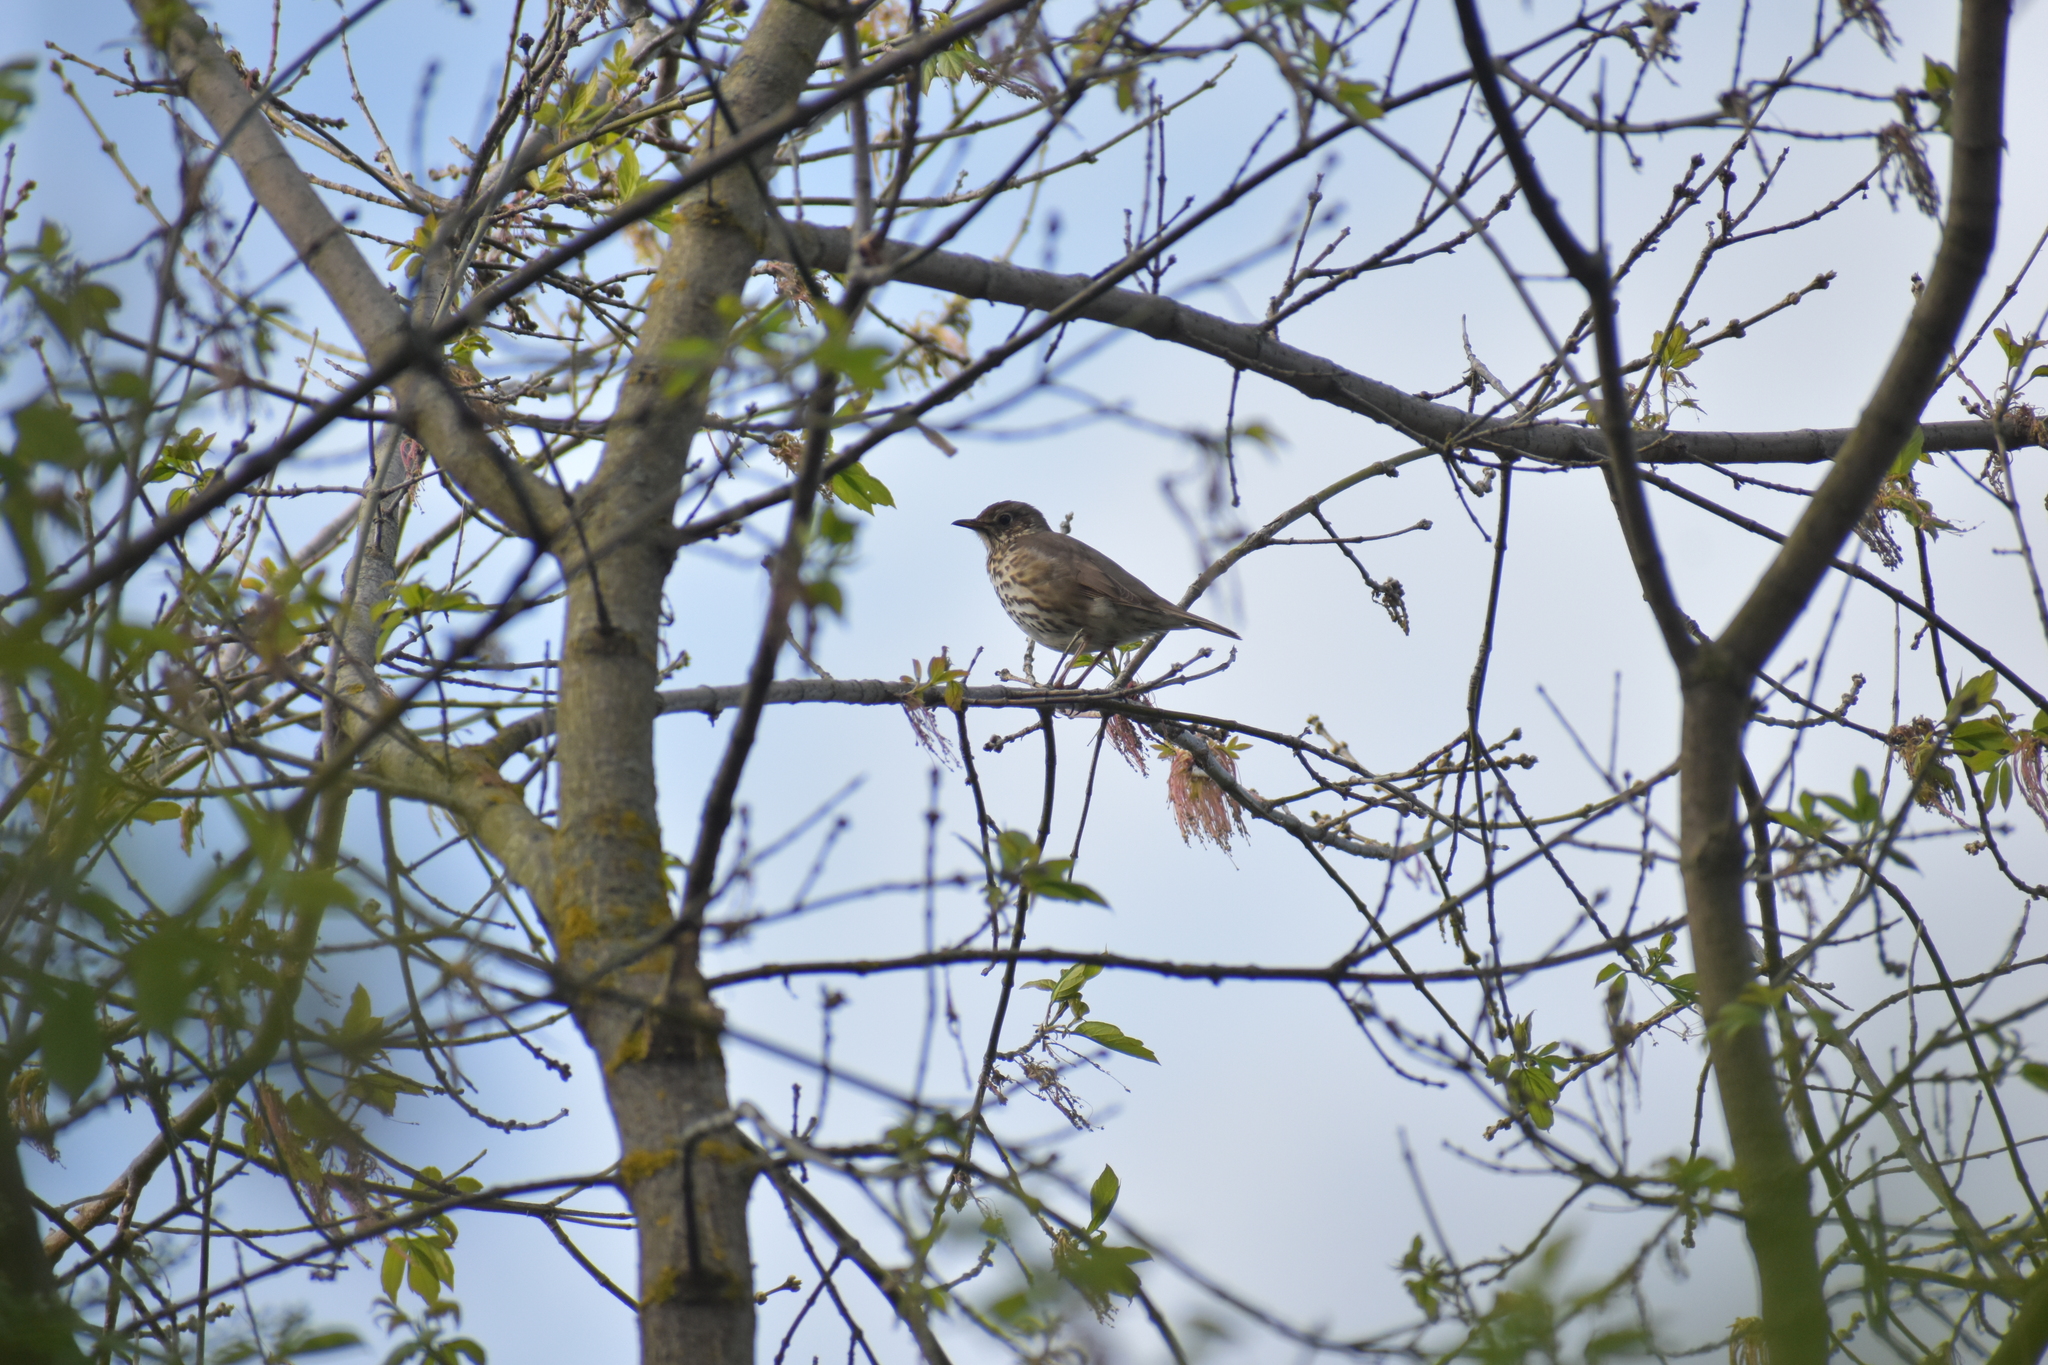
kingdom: Animalia
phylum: Chordata
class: Aves
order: Passeriformes
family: Turdidae
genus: Turdus
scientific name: Turdus philomelos
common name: Song thrush
